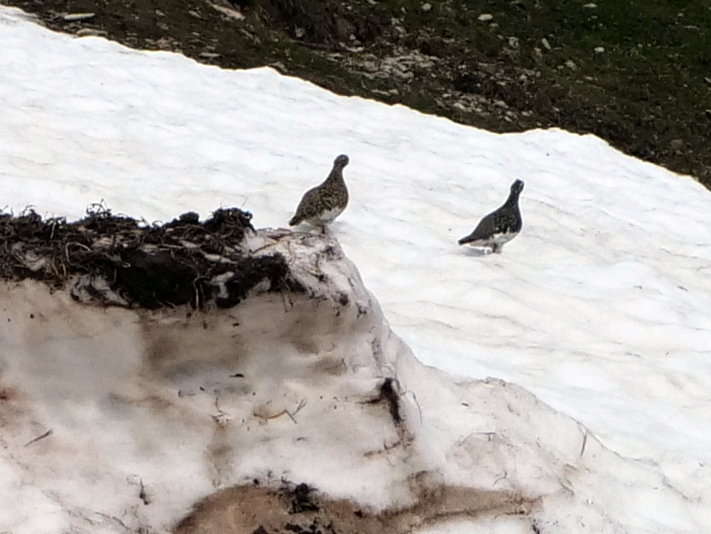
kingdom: Animalia
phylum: Chordata
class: Aves
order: Galliformes
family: Phasianidae
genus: Lagopus
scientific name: Lagopus muta
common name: Rock ptarmigan
